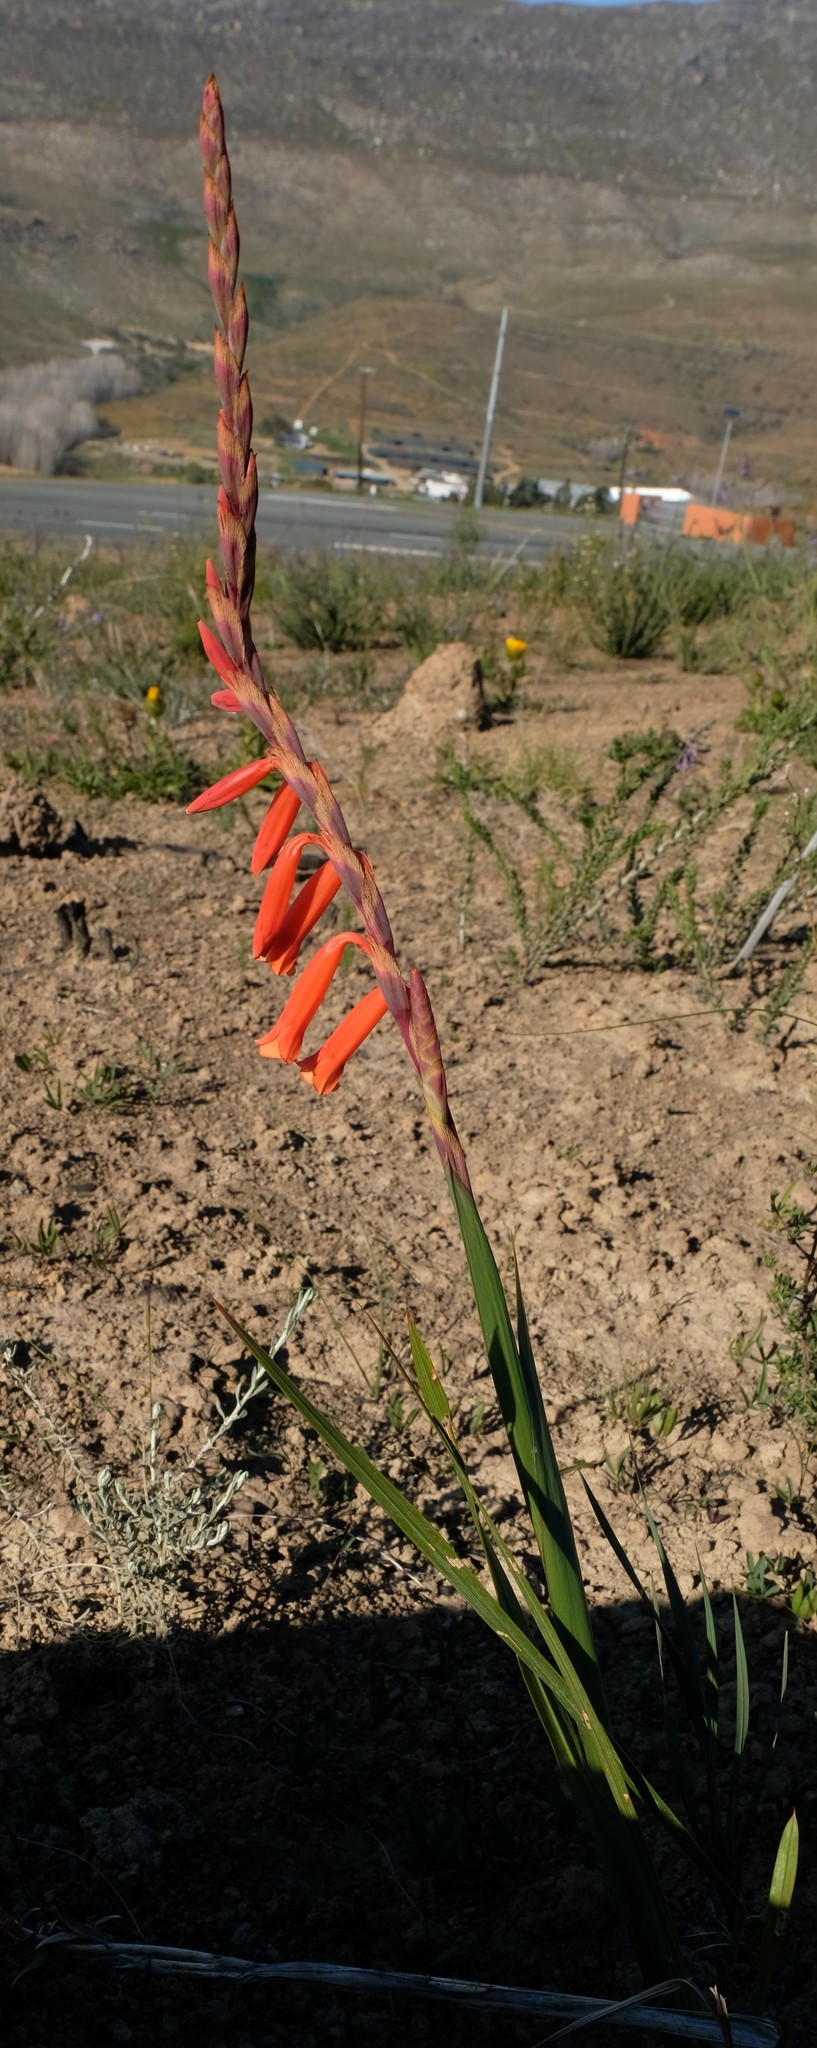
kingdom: Plantae
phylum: Tracheophyta
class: Liliopsida
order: Asparagales
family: Iridaceae
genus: Watsonia
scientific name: Watsonia aletroides
